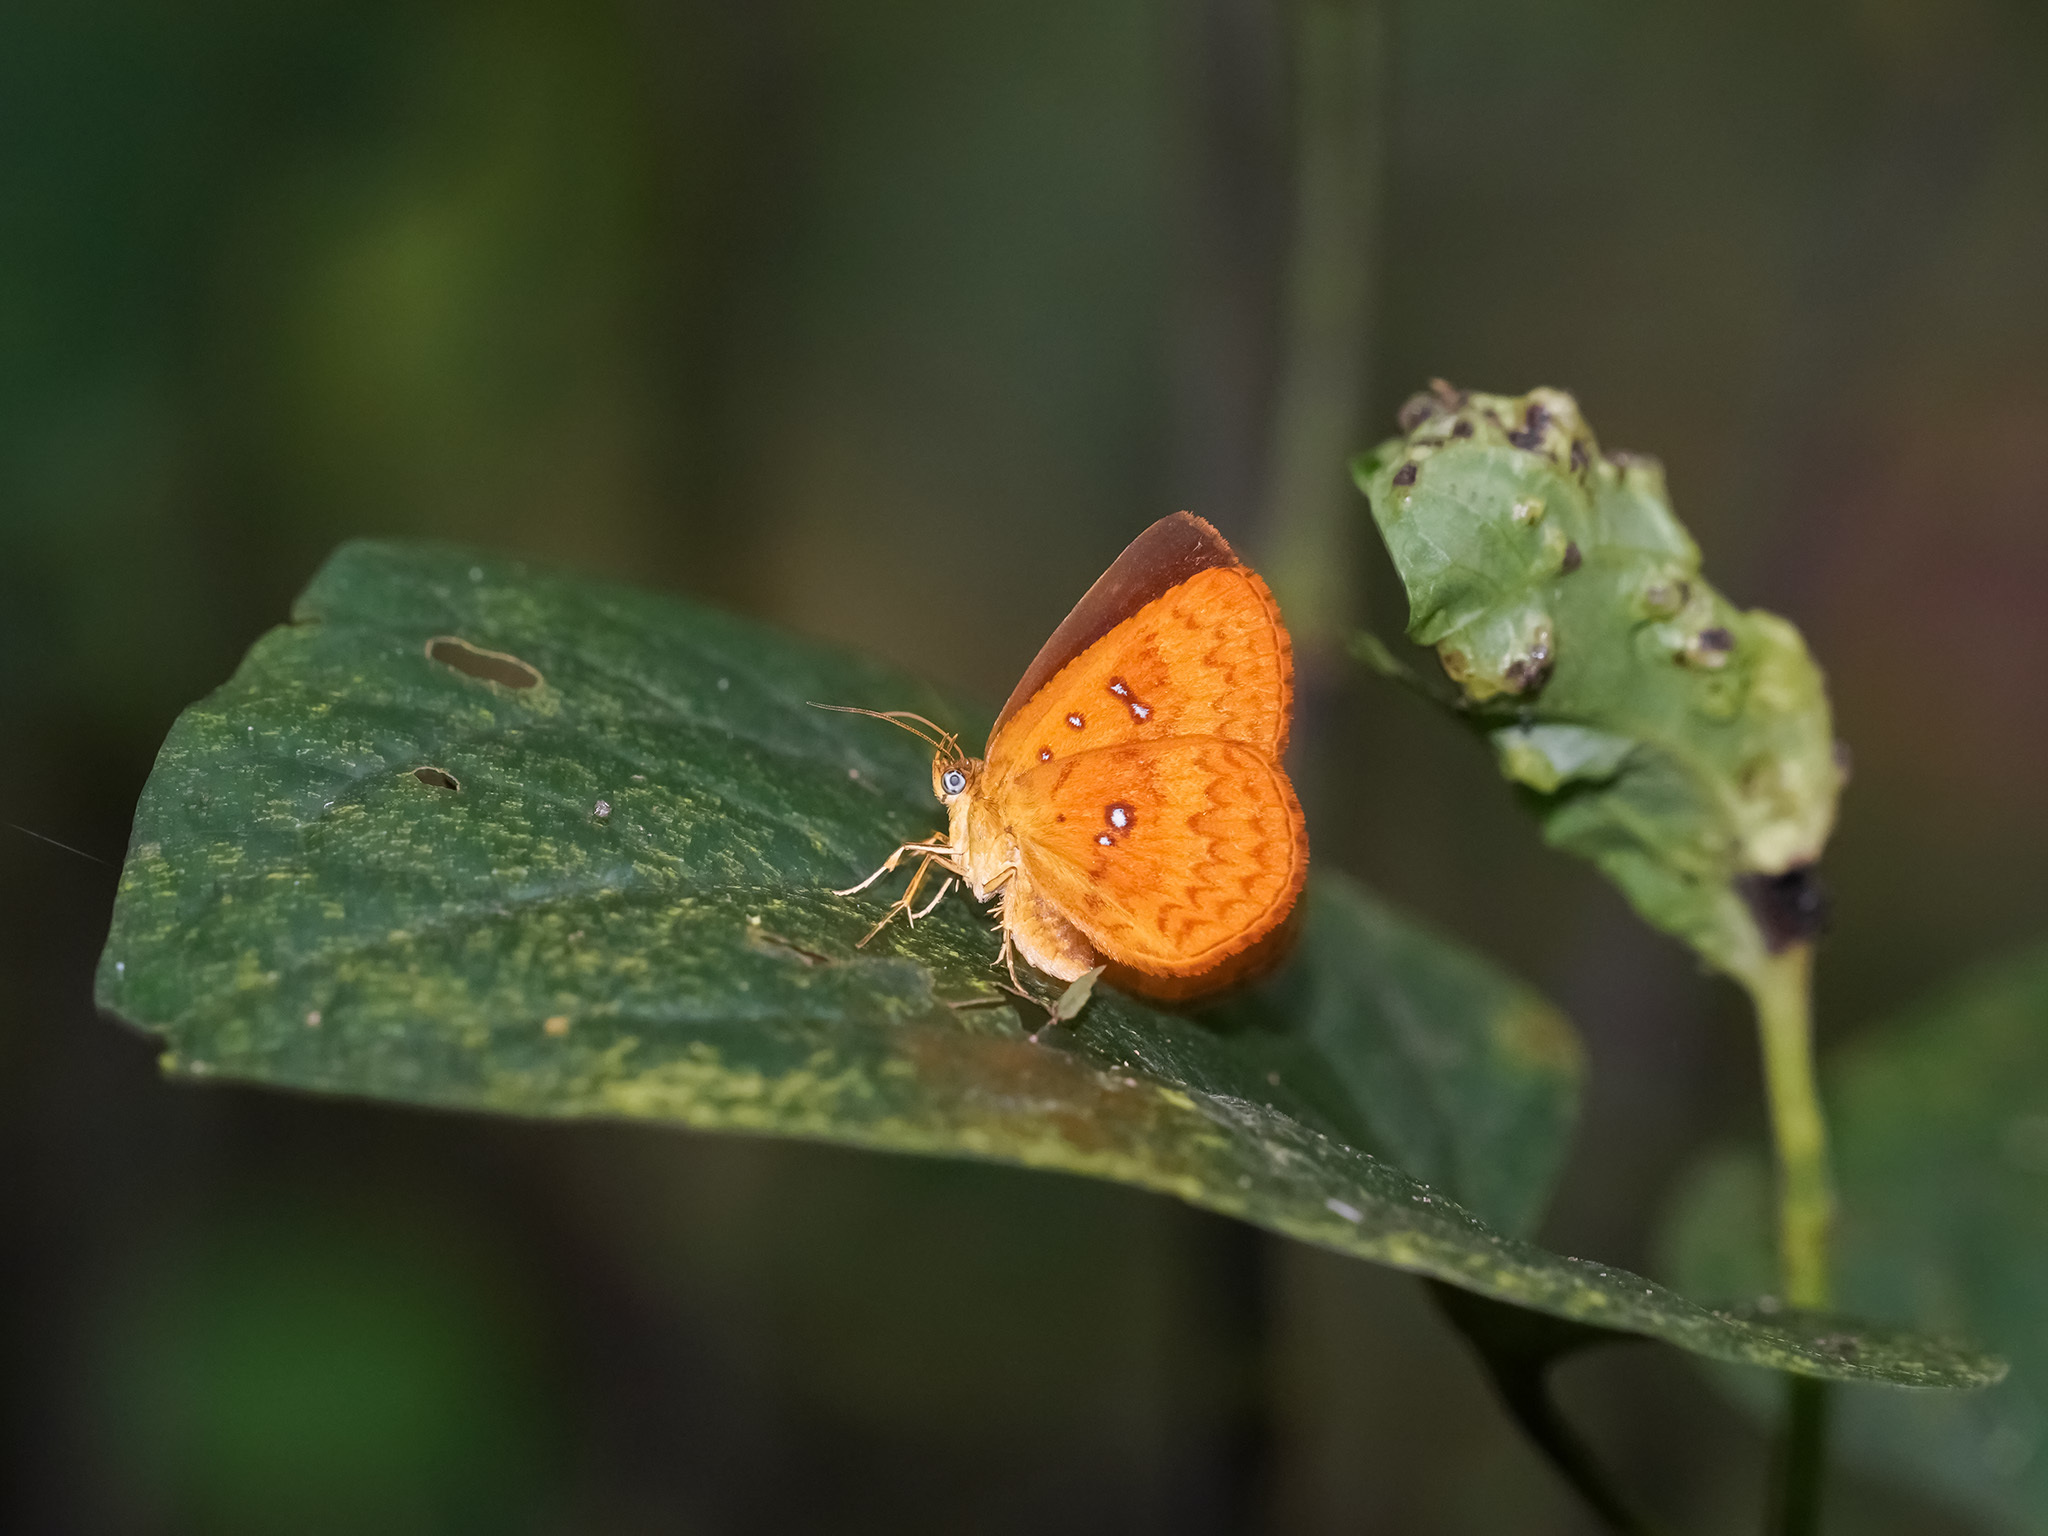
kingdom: Animalia
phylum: Arthropoda
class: Insecta
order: Lepidoptera
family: Callidulidae
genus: Tetragonus
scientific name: Tetragonus lycaenoides
